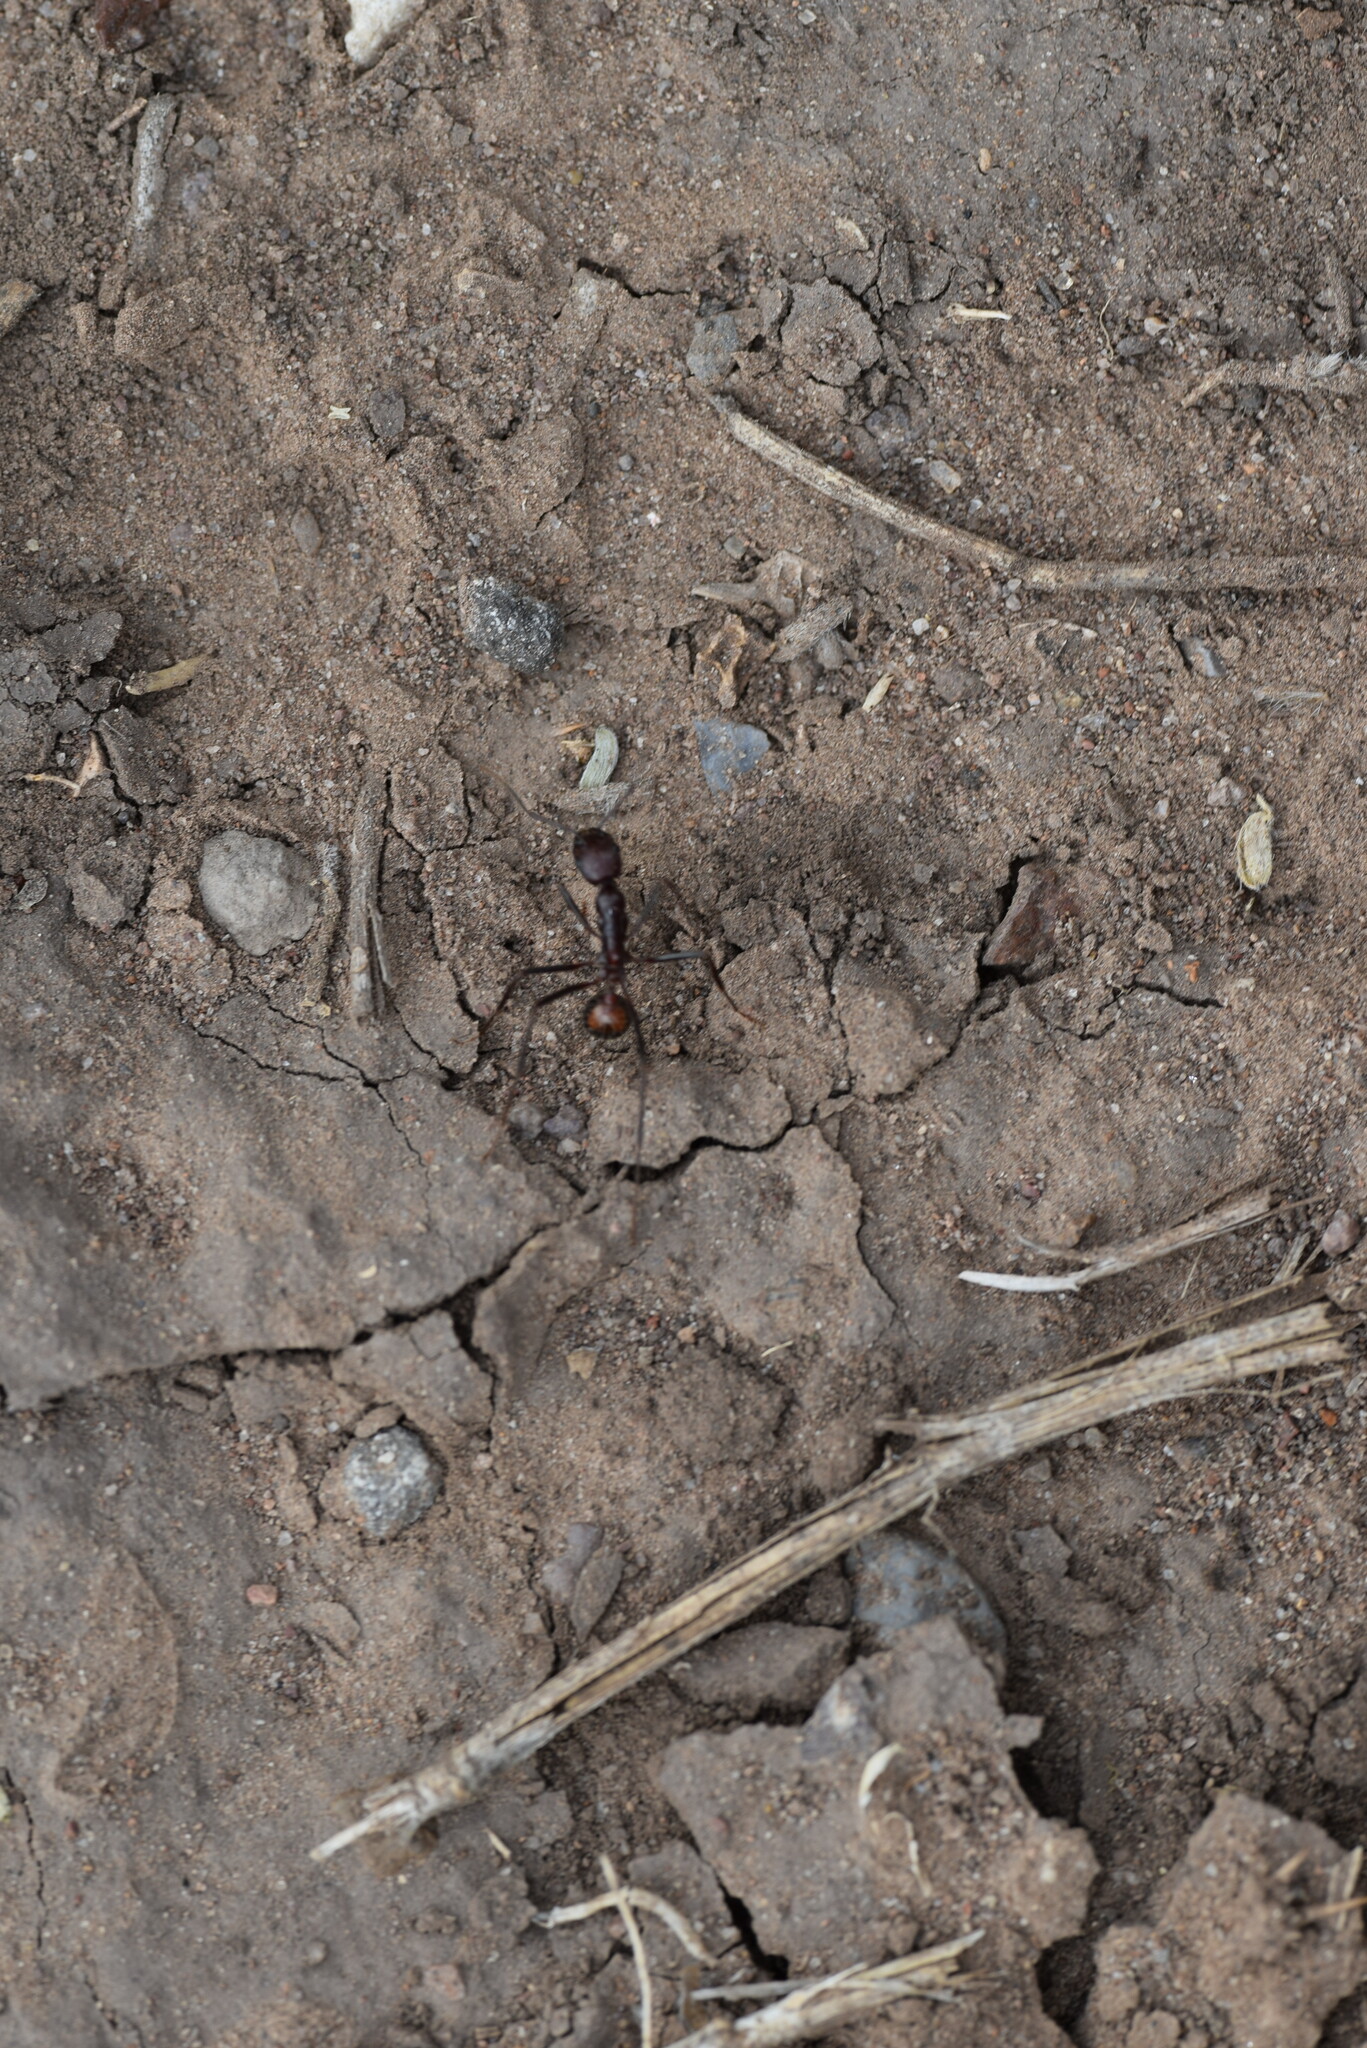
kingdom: Animalia
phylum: Arthropoda
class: Insecta
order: Hymenoptera
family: Formicidae
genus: Novomessor
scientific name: Novomessor cockerelli
